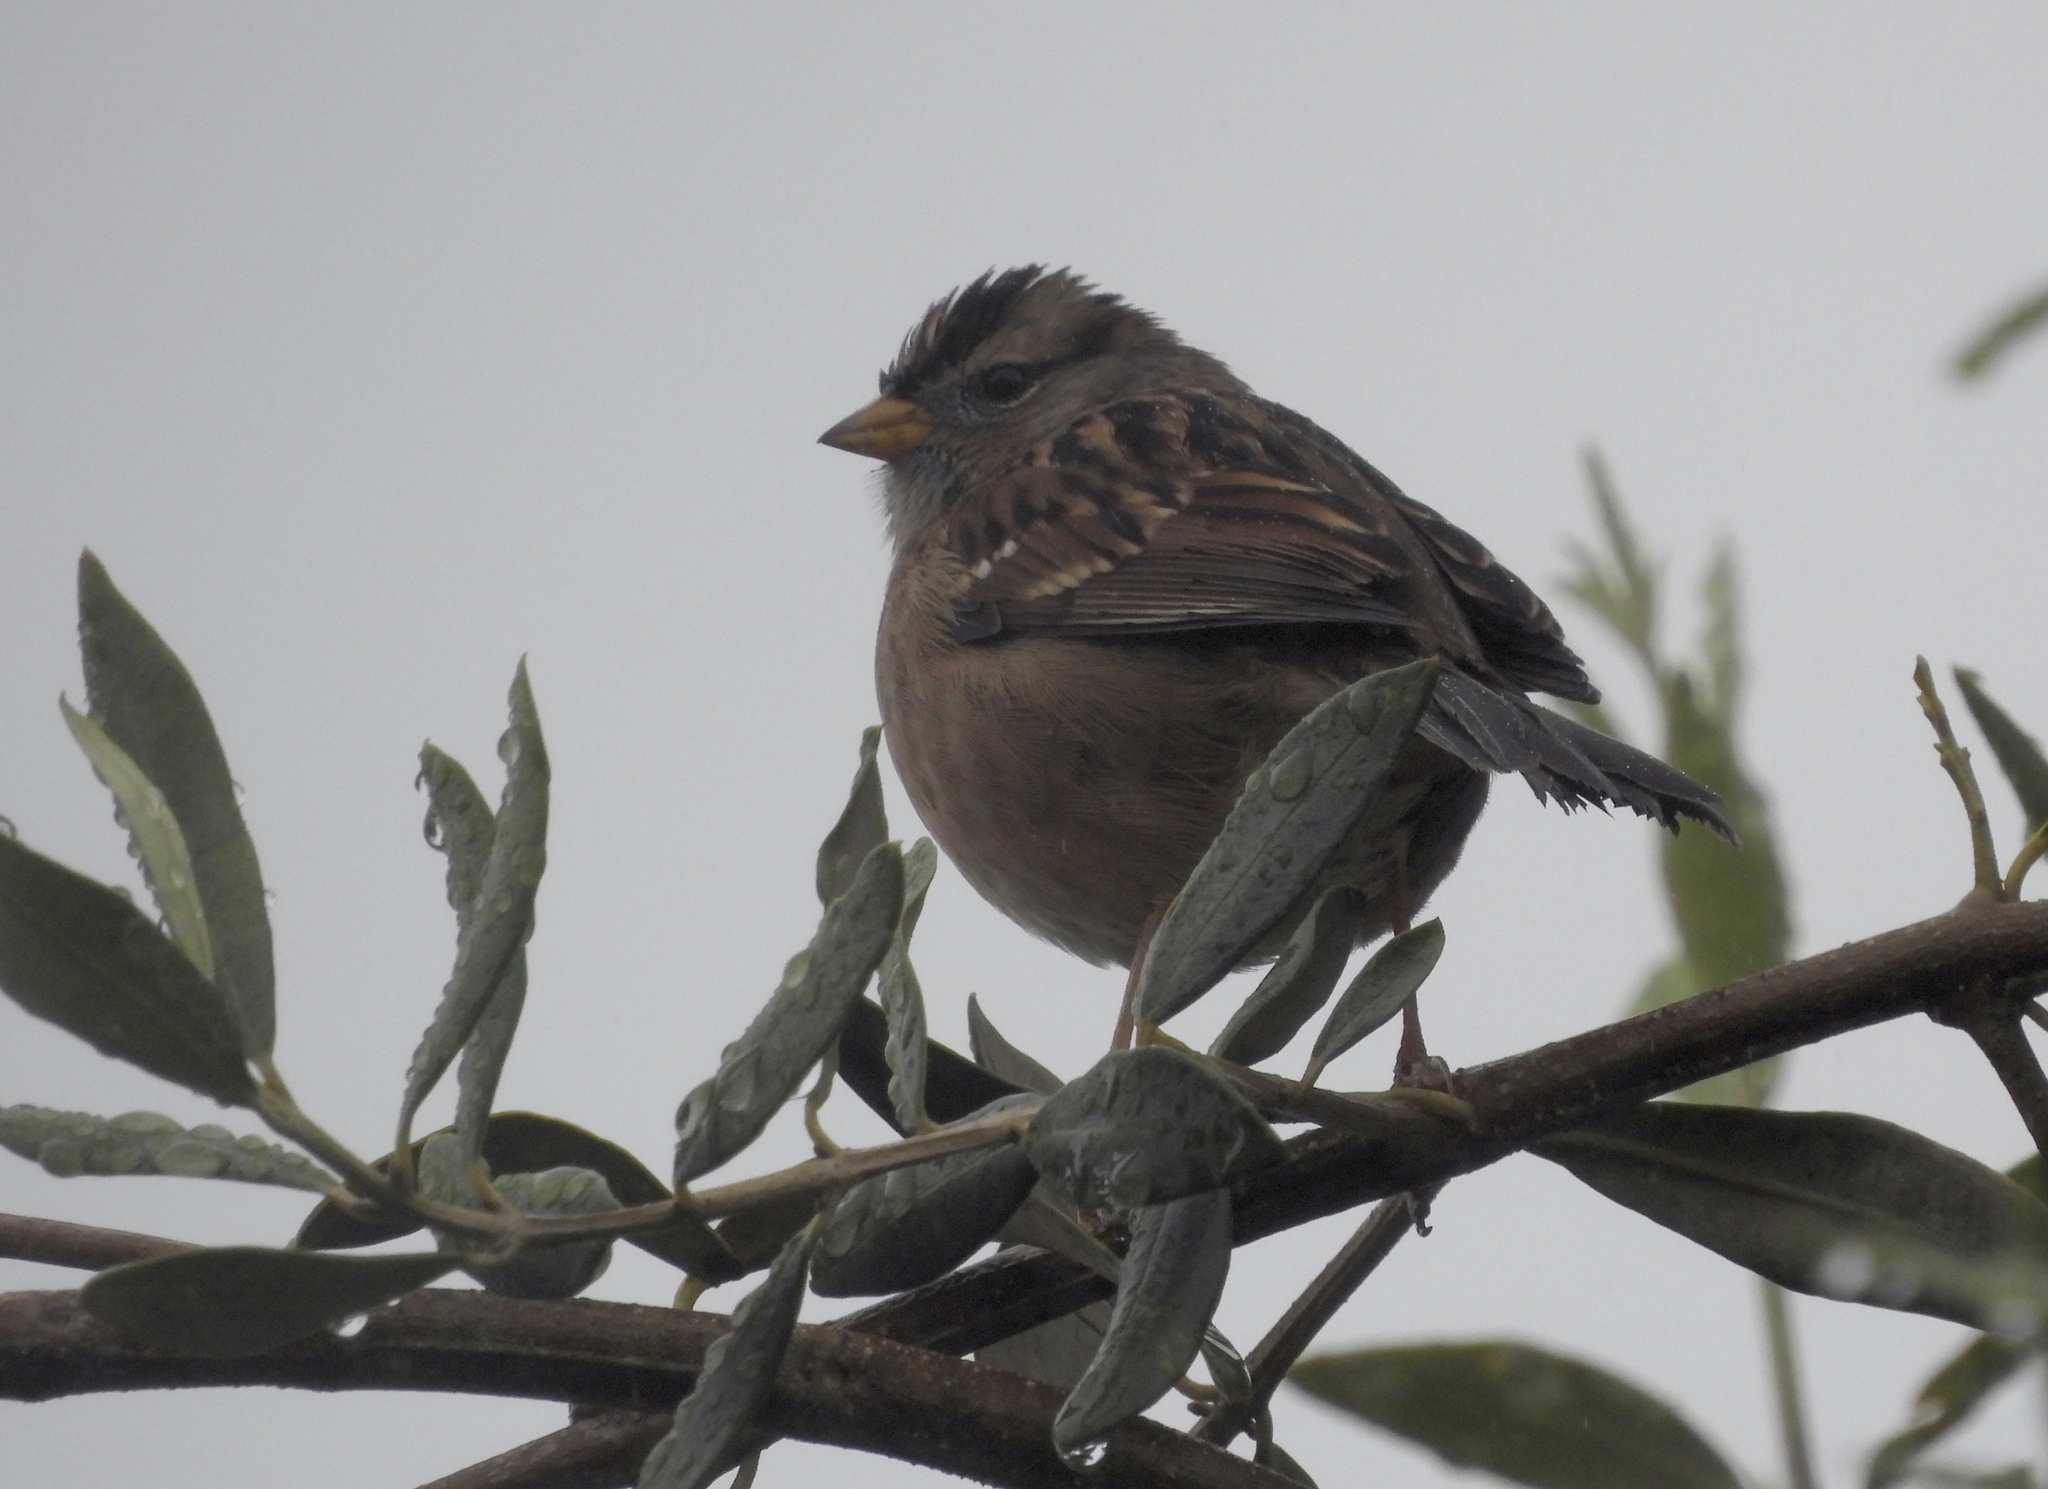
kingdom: Animalia
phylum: Chordata
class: Aves
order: Passeriformes
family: Passerellidae
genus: Zonotrichia
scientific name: Zonotrichia leucophrys
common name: White-crowned sparrow
